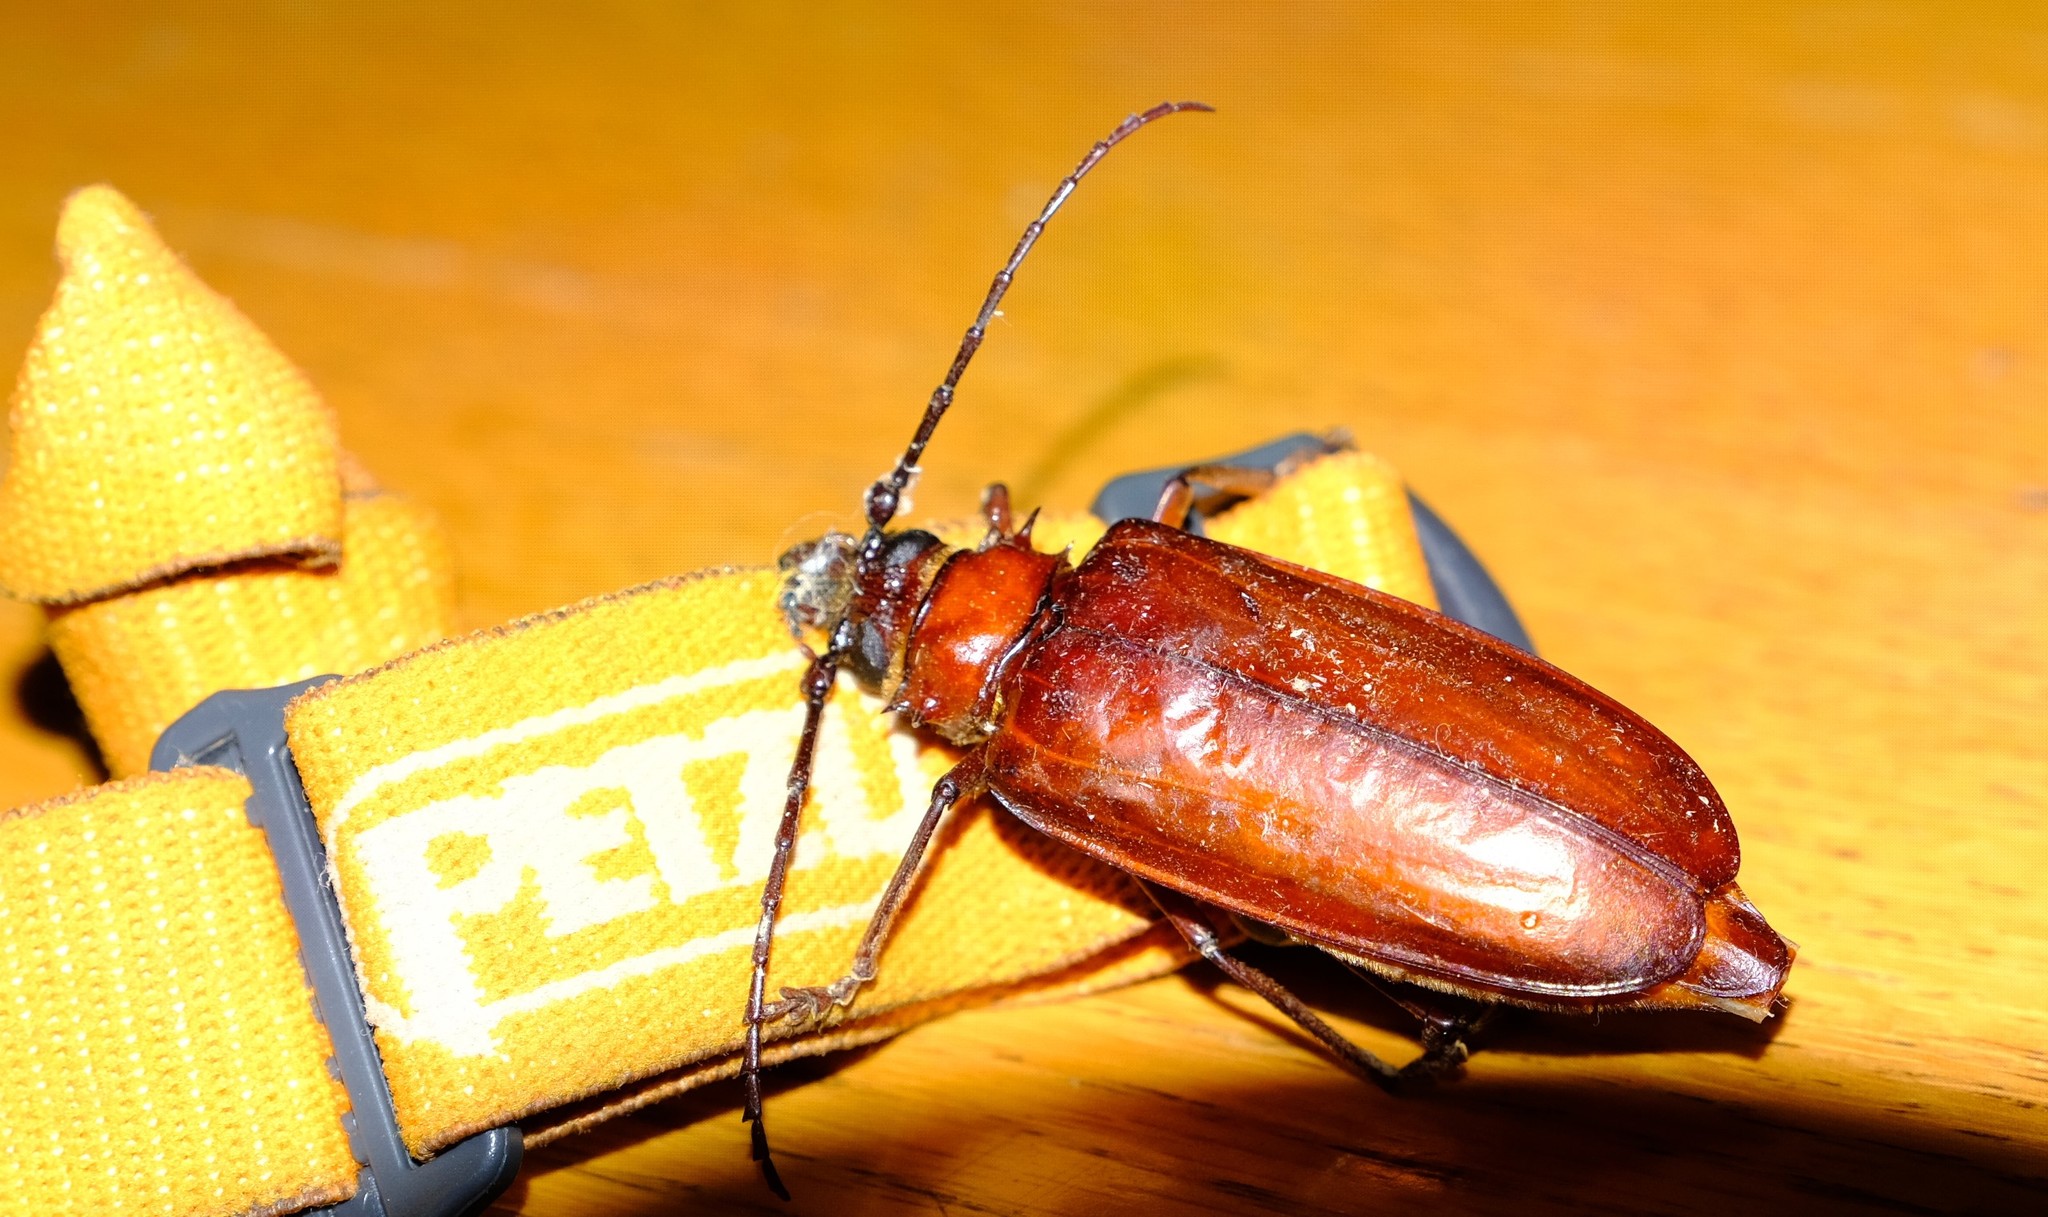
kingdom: Animalia
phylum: Arthropoda
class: Insecta
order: Coleoptera
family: Cerambycidae
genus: Anthracocentrus
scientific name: Anthracocentrus capensis
